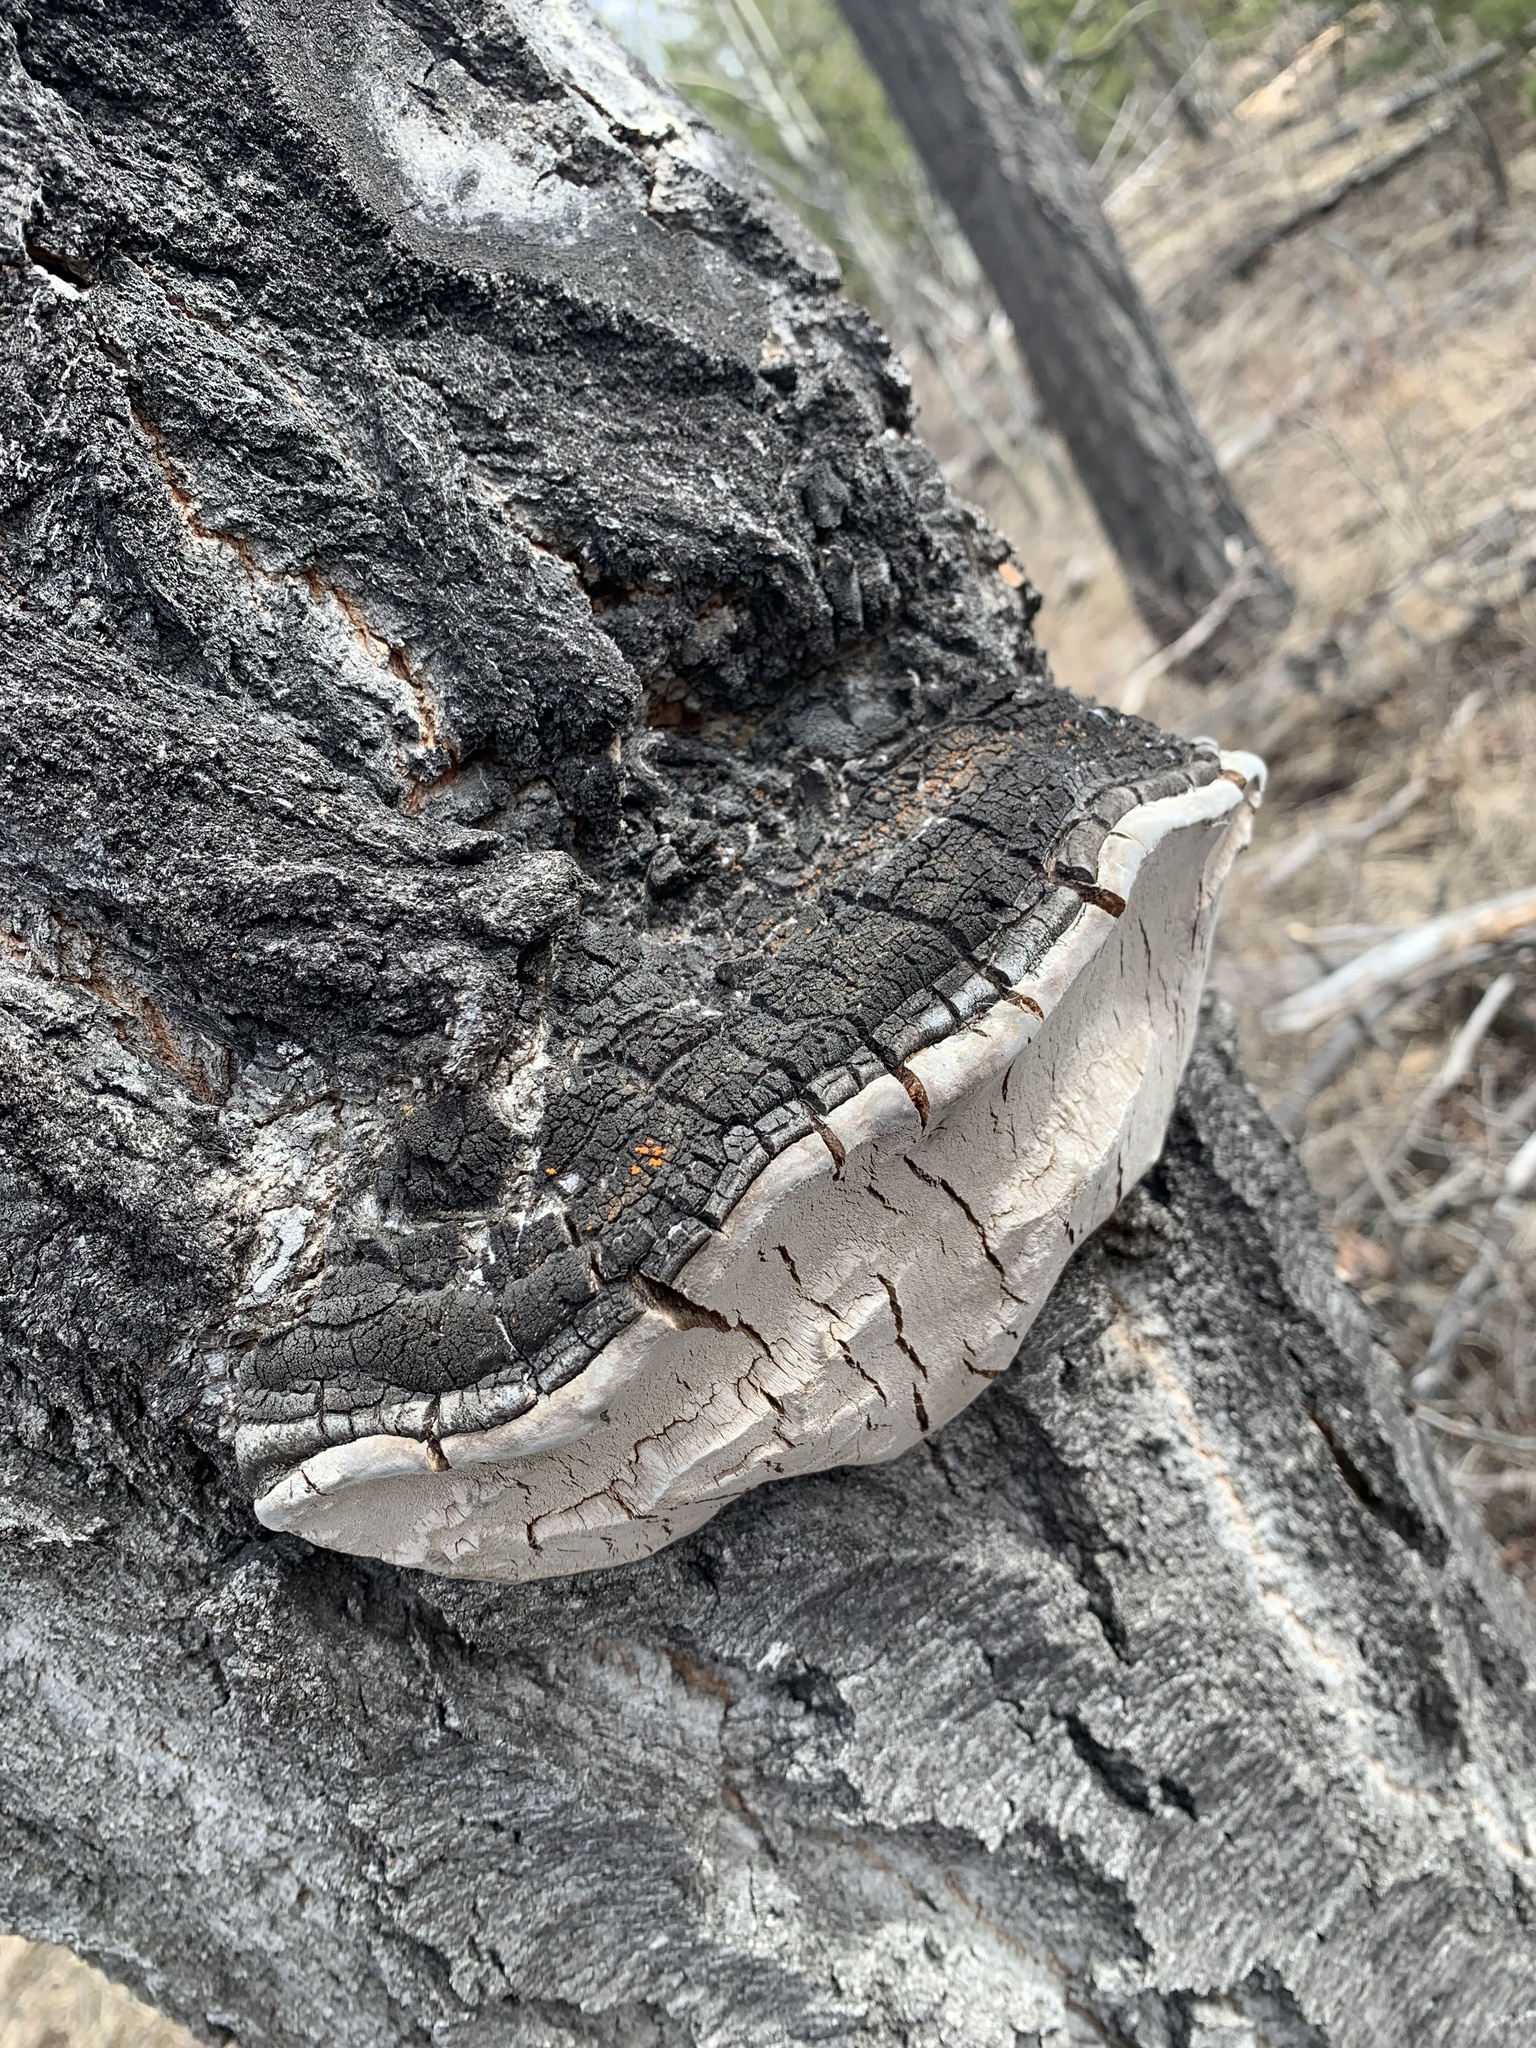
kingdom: Fungi
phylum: Basidiomycota
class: Agaricomycetes
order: Hymenochaetales
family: Hymenochaetaceae
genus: Phellinus
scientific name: Phellinus tremulae
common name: Aspen bracket
